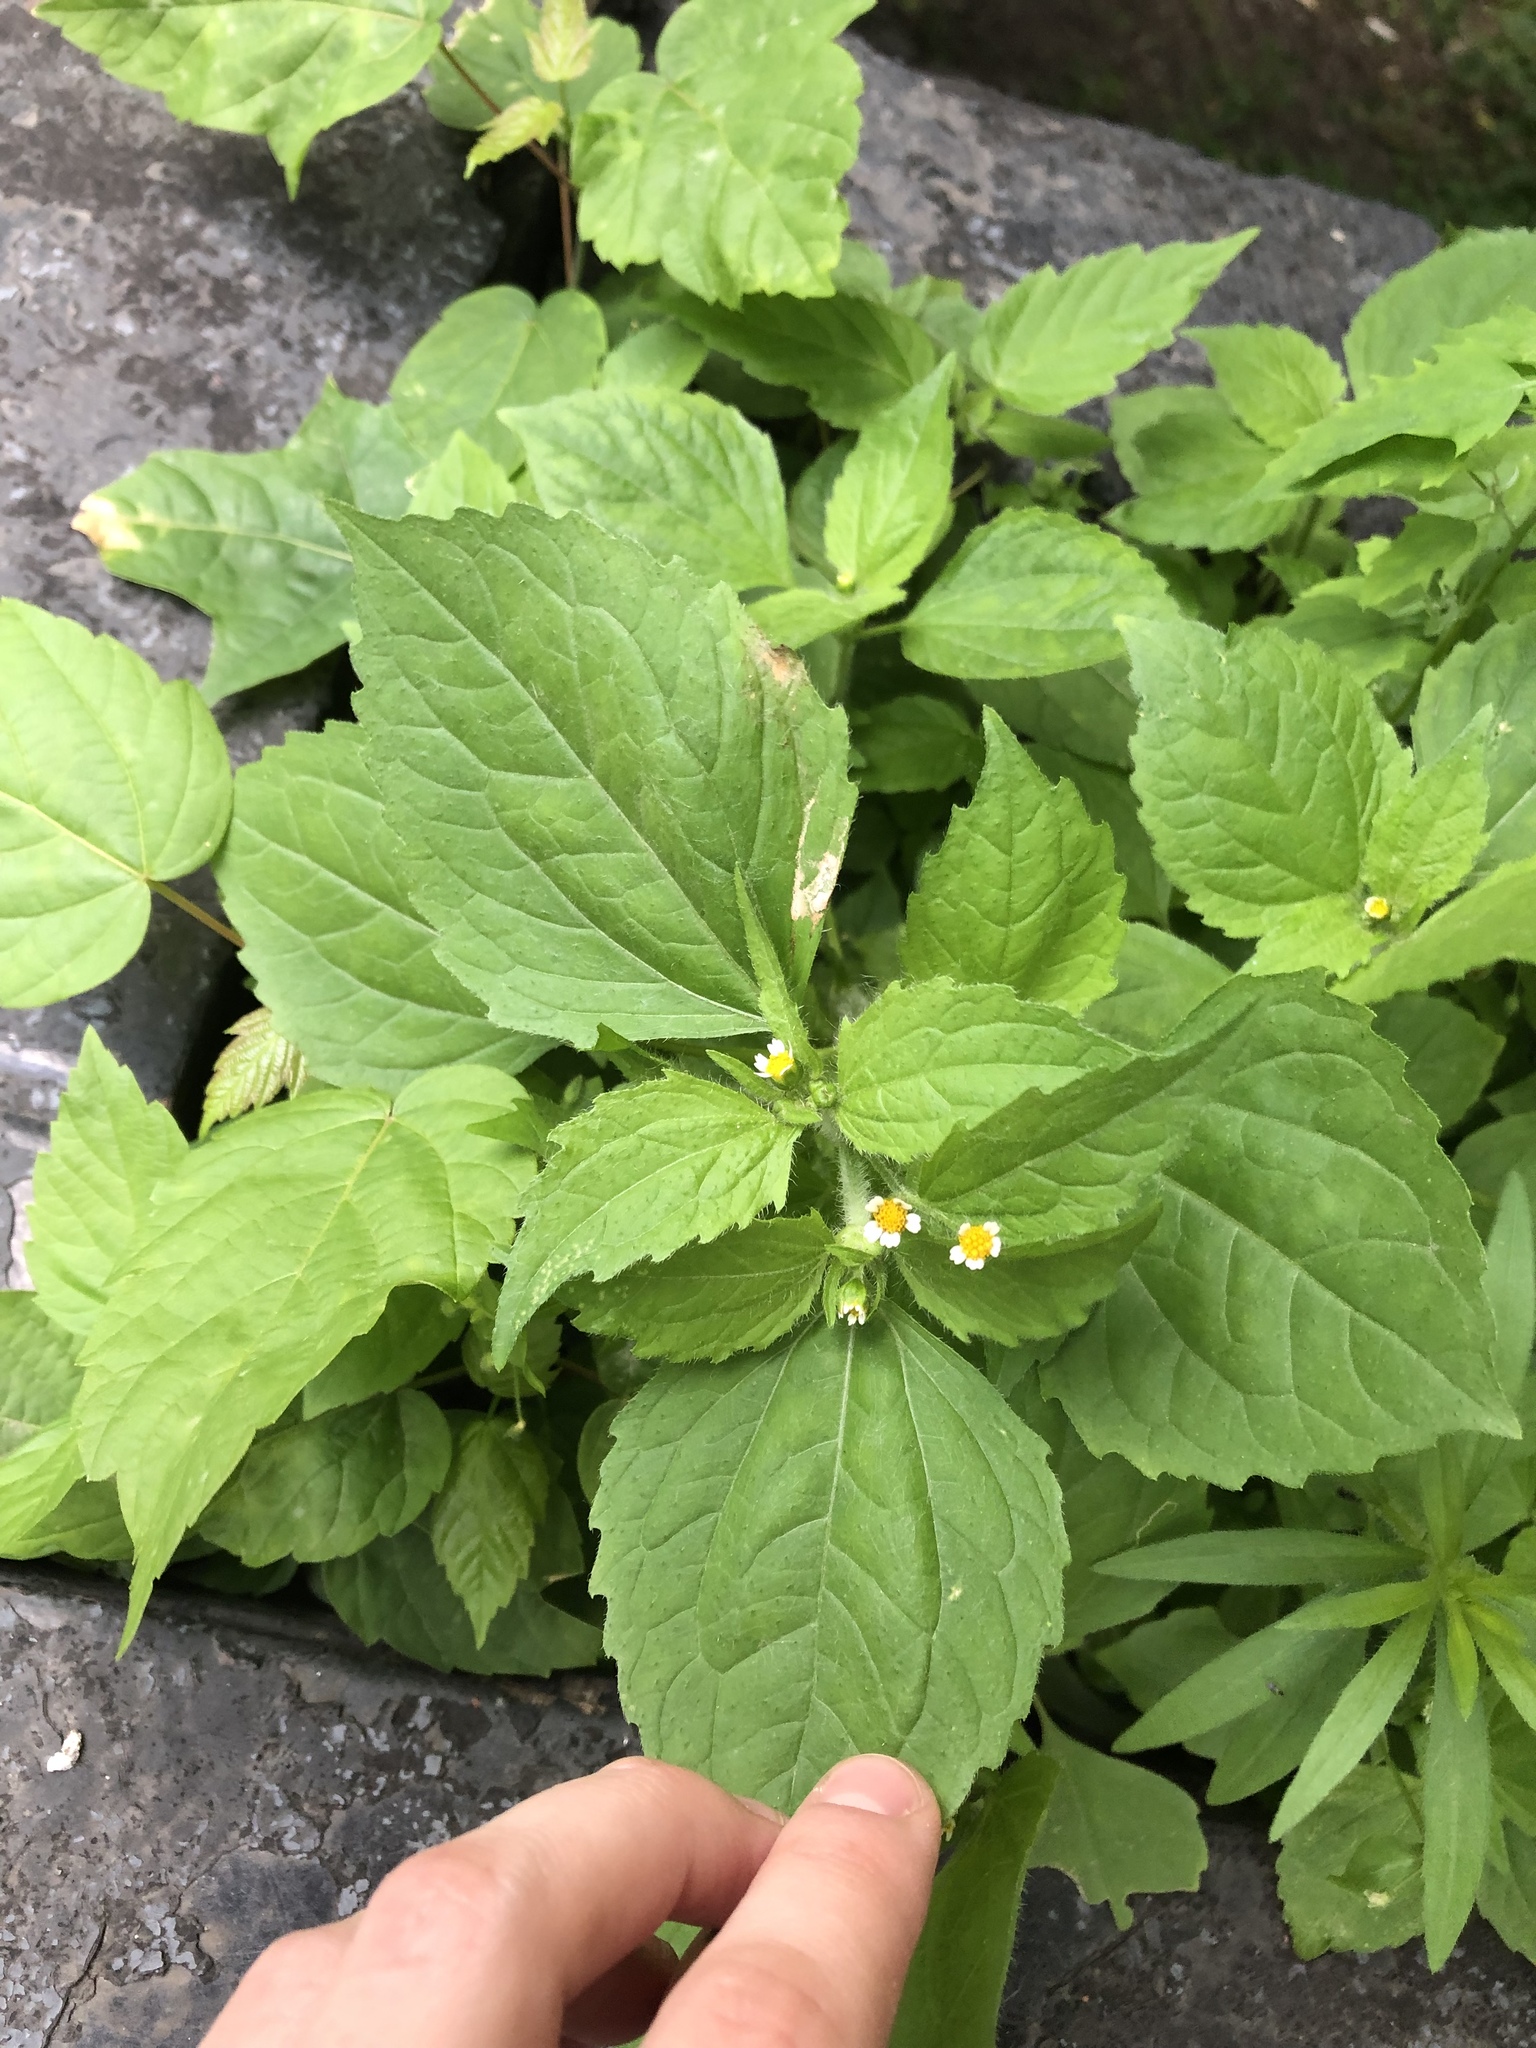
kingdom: Plantae
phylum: Tracheophyta
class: Magnoliopsida
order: Asterales
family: Asteraceae
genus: Galinsoga
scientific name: Galinsoga parviflora
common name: Gallant soldier
